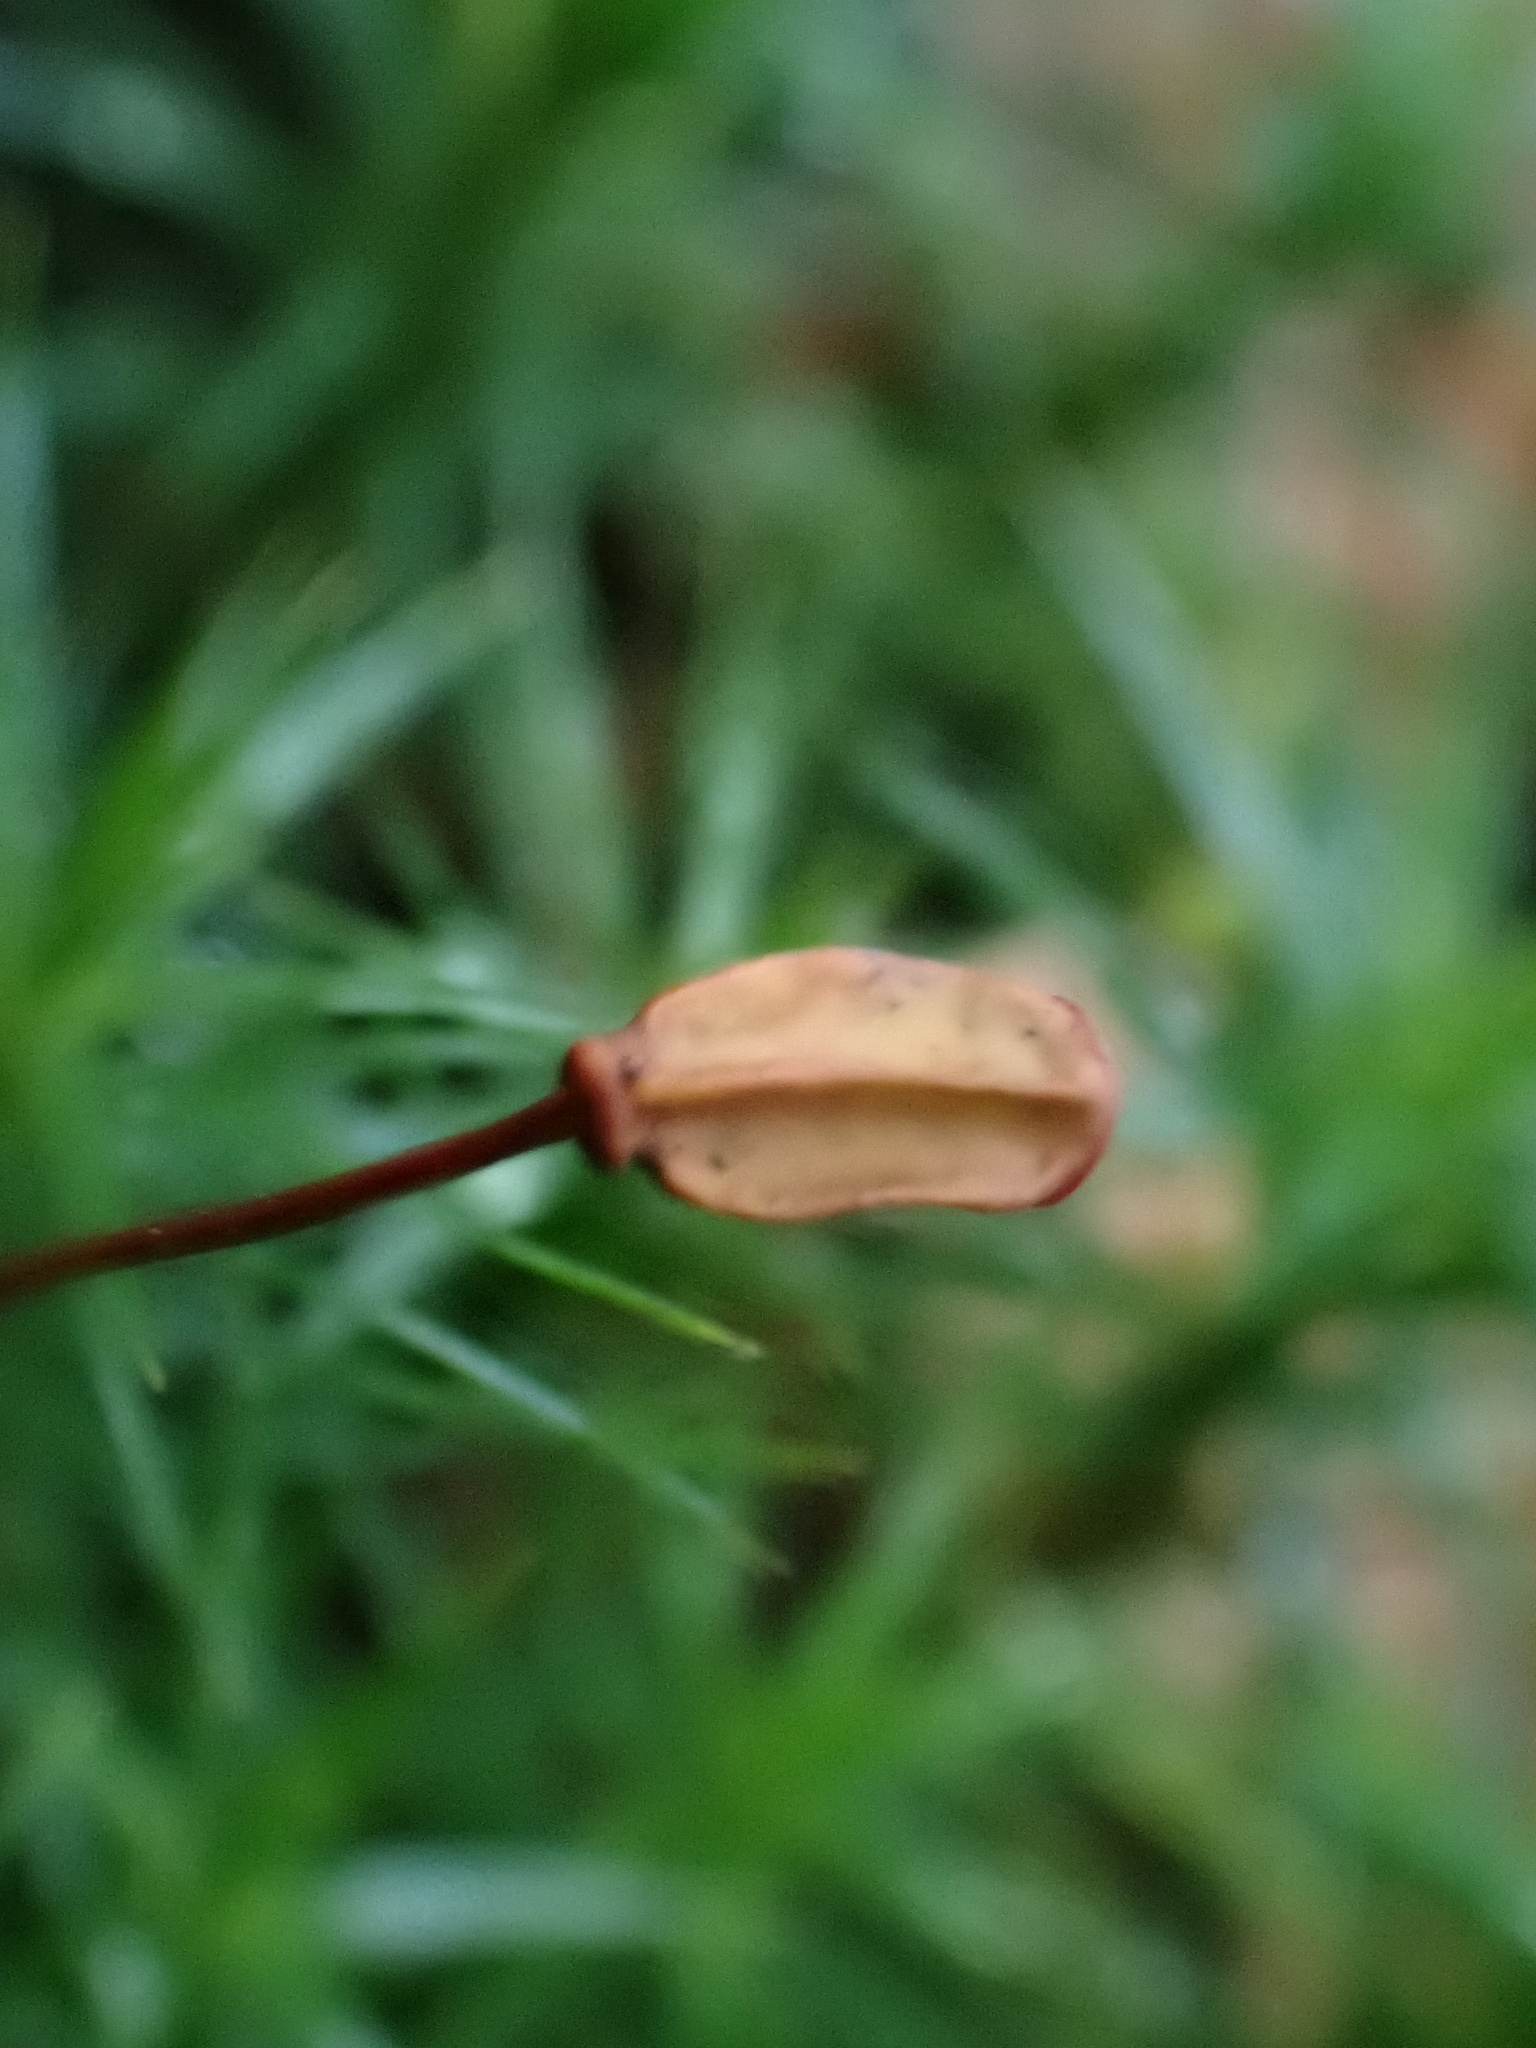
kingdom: Plantae
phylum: Bryophyta
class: Polytrichopsida
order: Polytrichales
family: Polytrichaceae
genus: Polytrichum
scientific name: Polytrichum formosum
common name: Bank haircap moss
